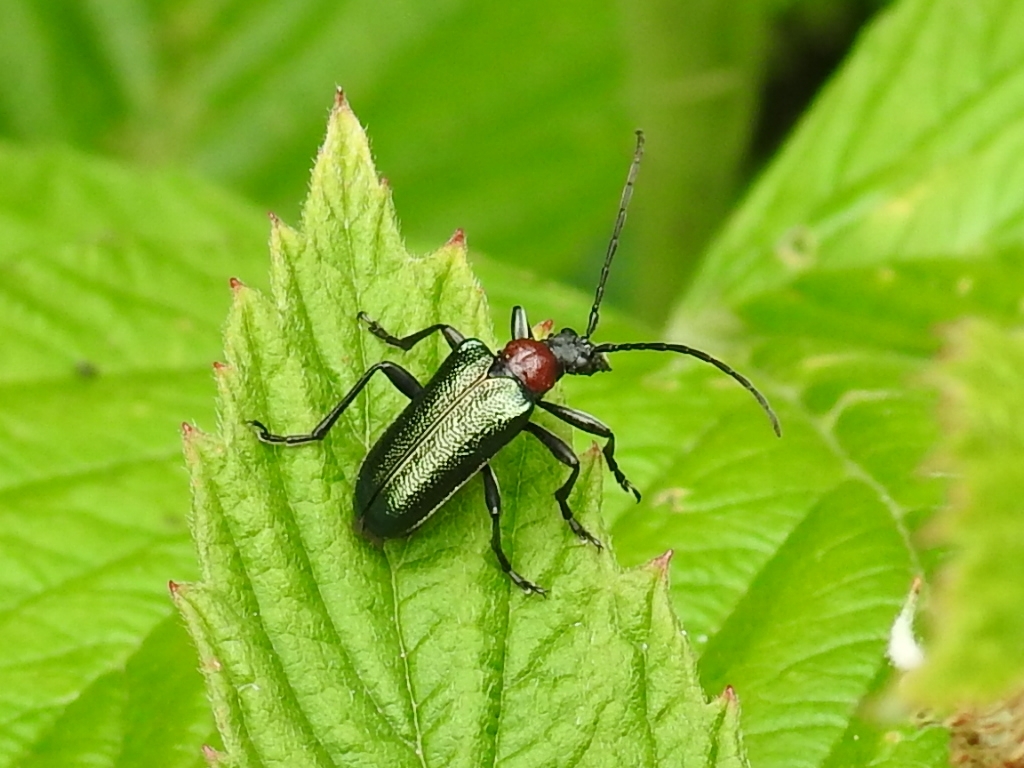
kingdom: Animalia
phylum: Arthropoda
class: Insecta
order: Coleoptera
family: Cerambycidae
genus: Gaurotes
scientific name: Gaurotes virginea
